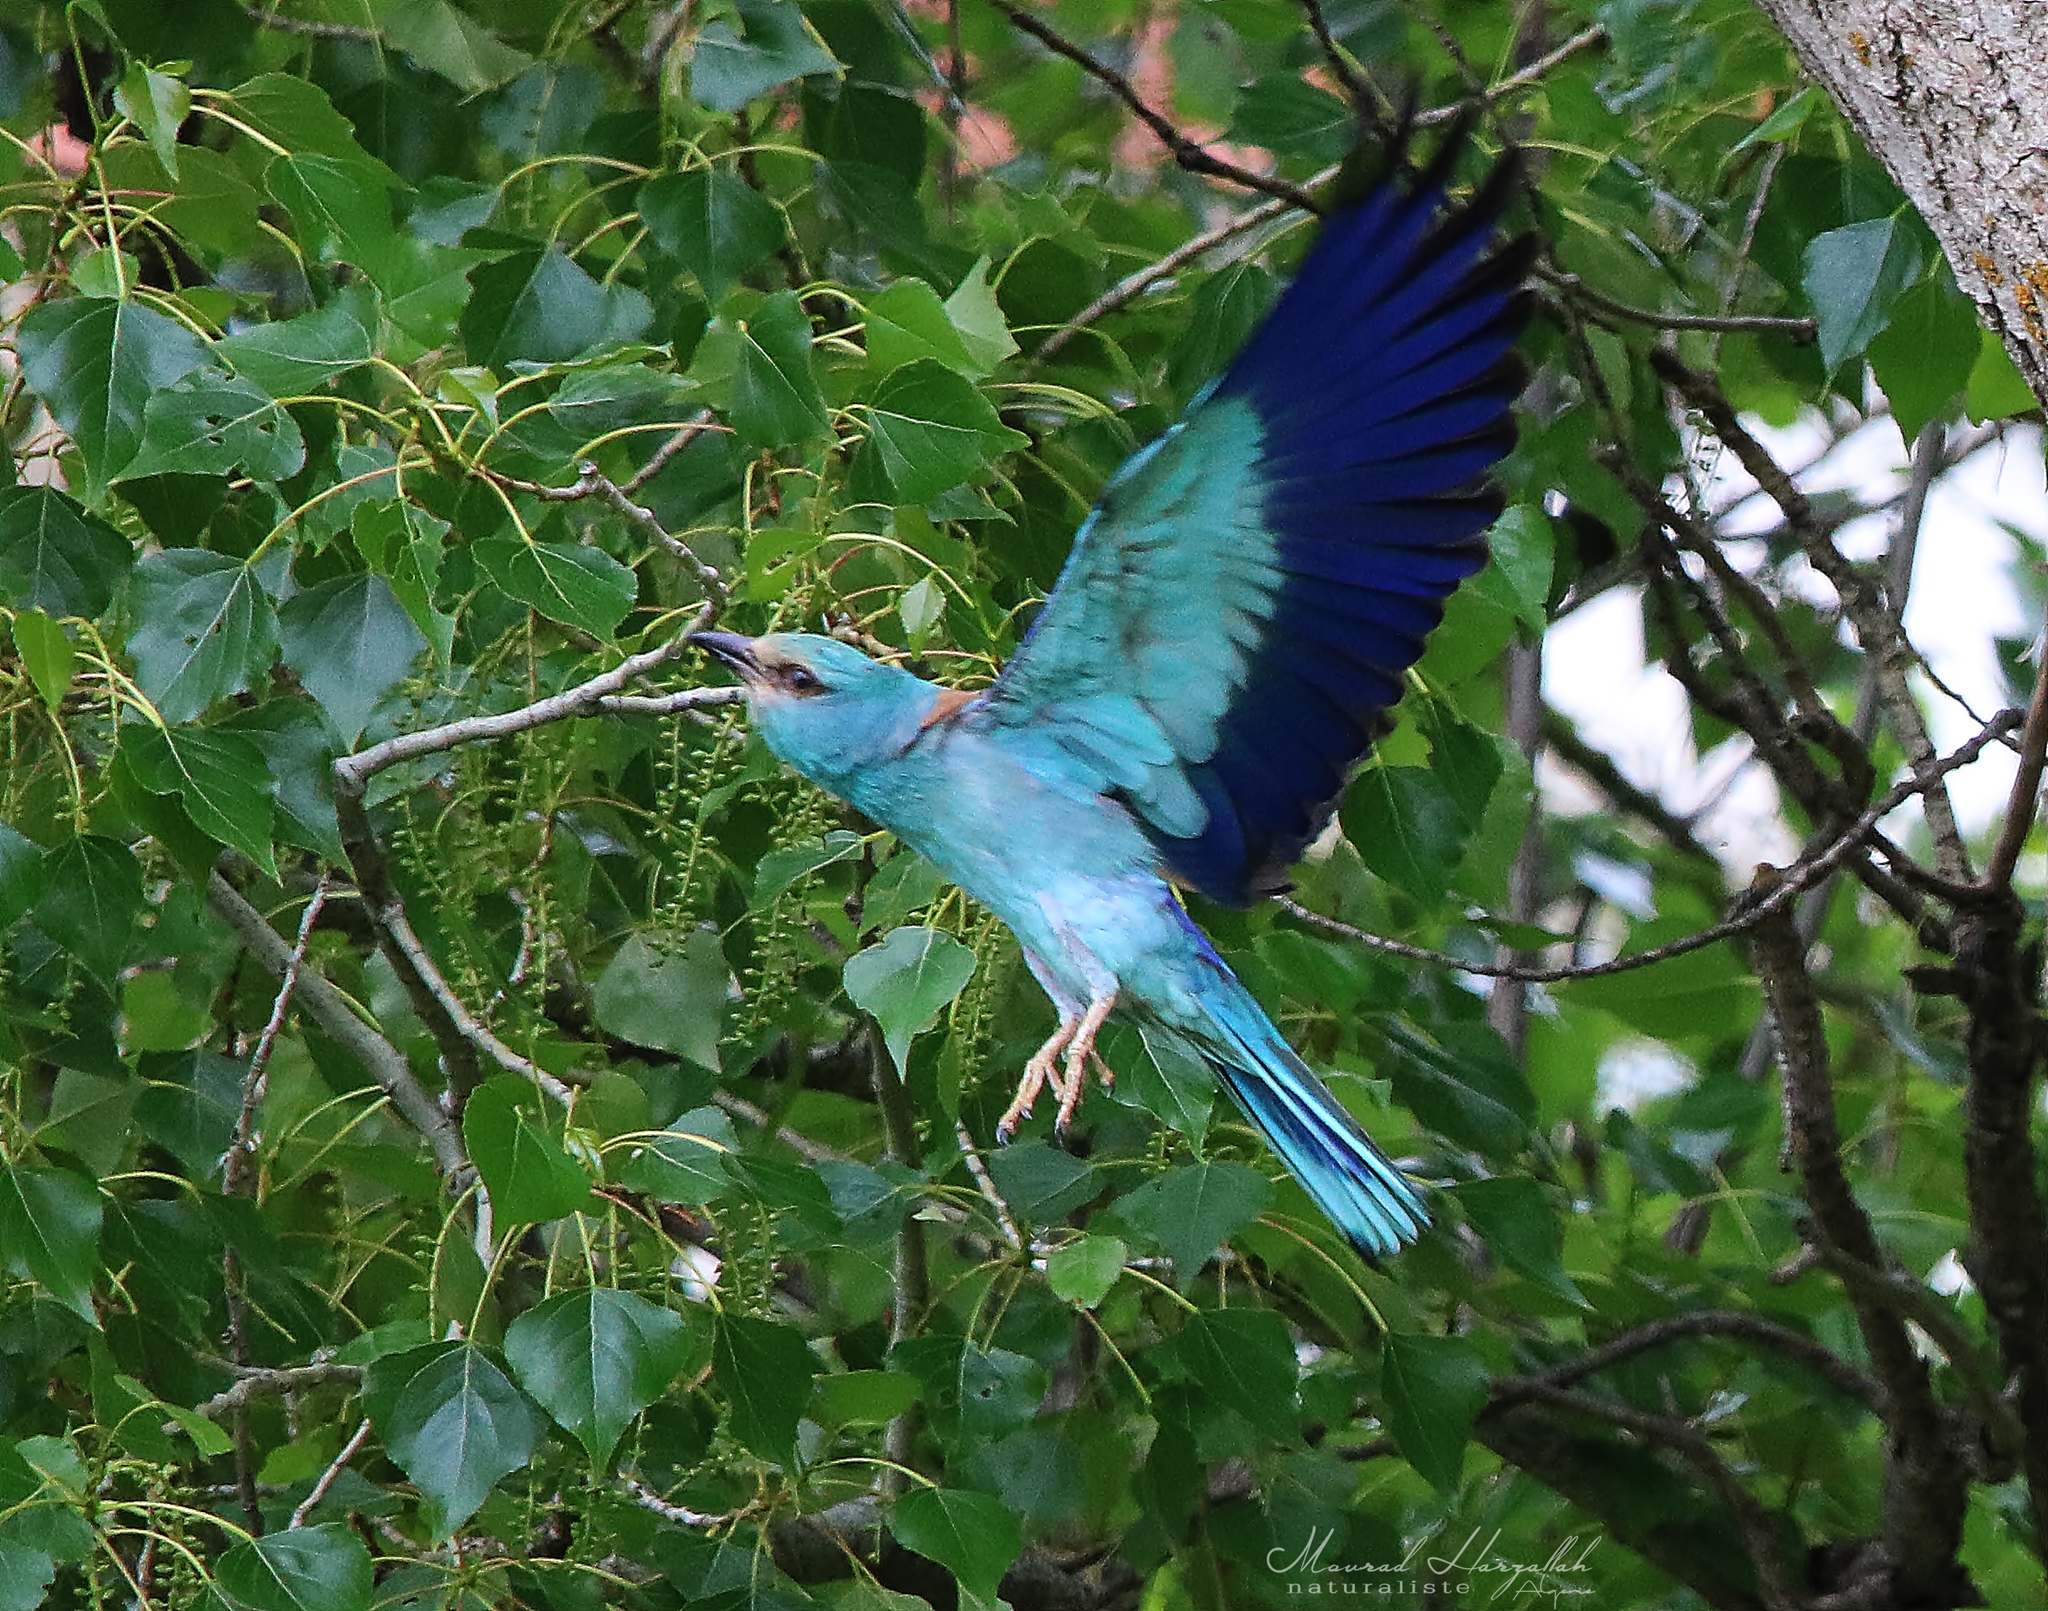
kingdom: Animalia
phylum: Chordata
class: Aves
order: Coraciiformes
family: Coraciidae
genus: Coracias
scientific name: Coracias garrulus
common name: European roller
